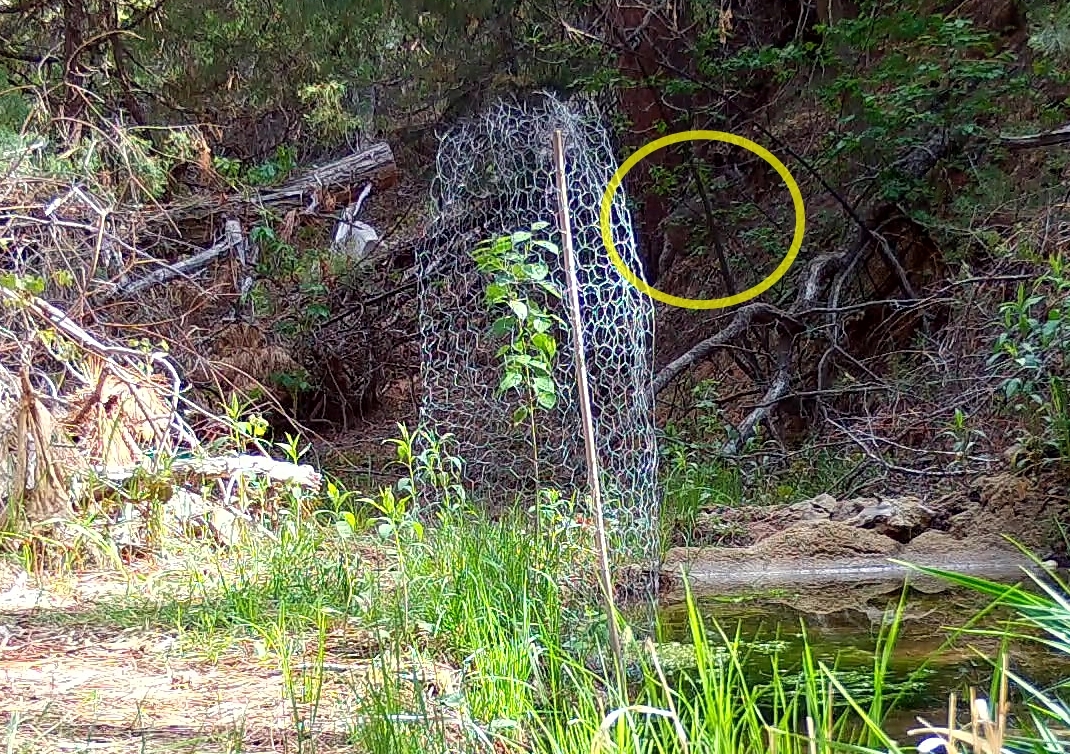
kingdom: Animalia
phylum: Chordata
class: Mammalia
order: Carnivora
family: Felidae
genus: Lynx
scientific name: Lynx rufus
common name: Bobcat
